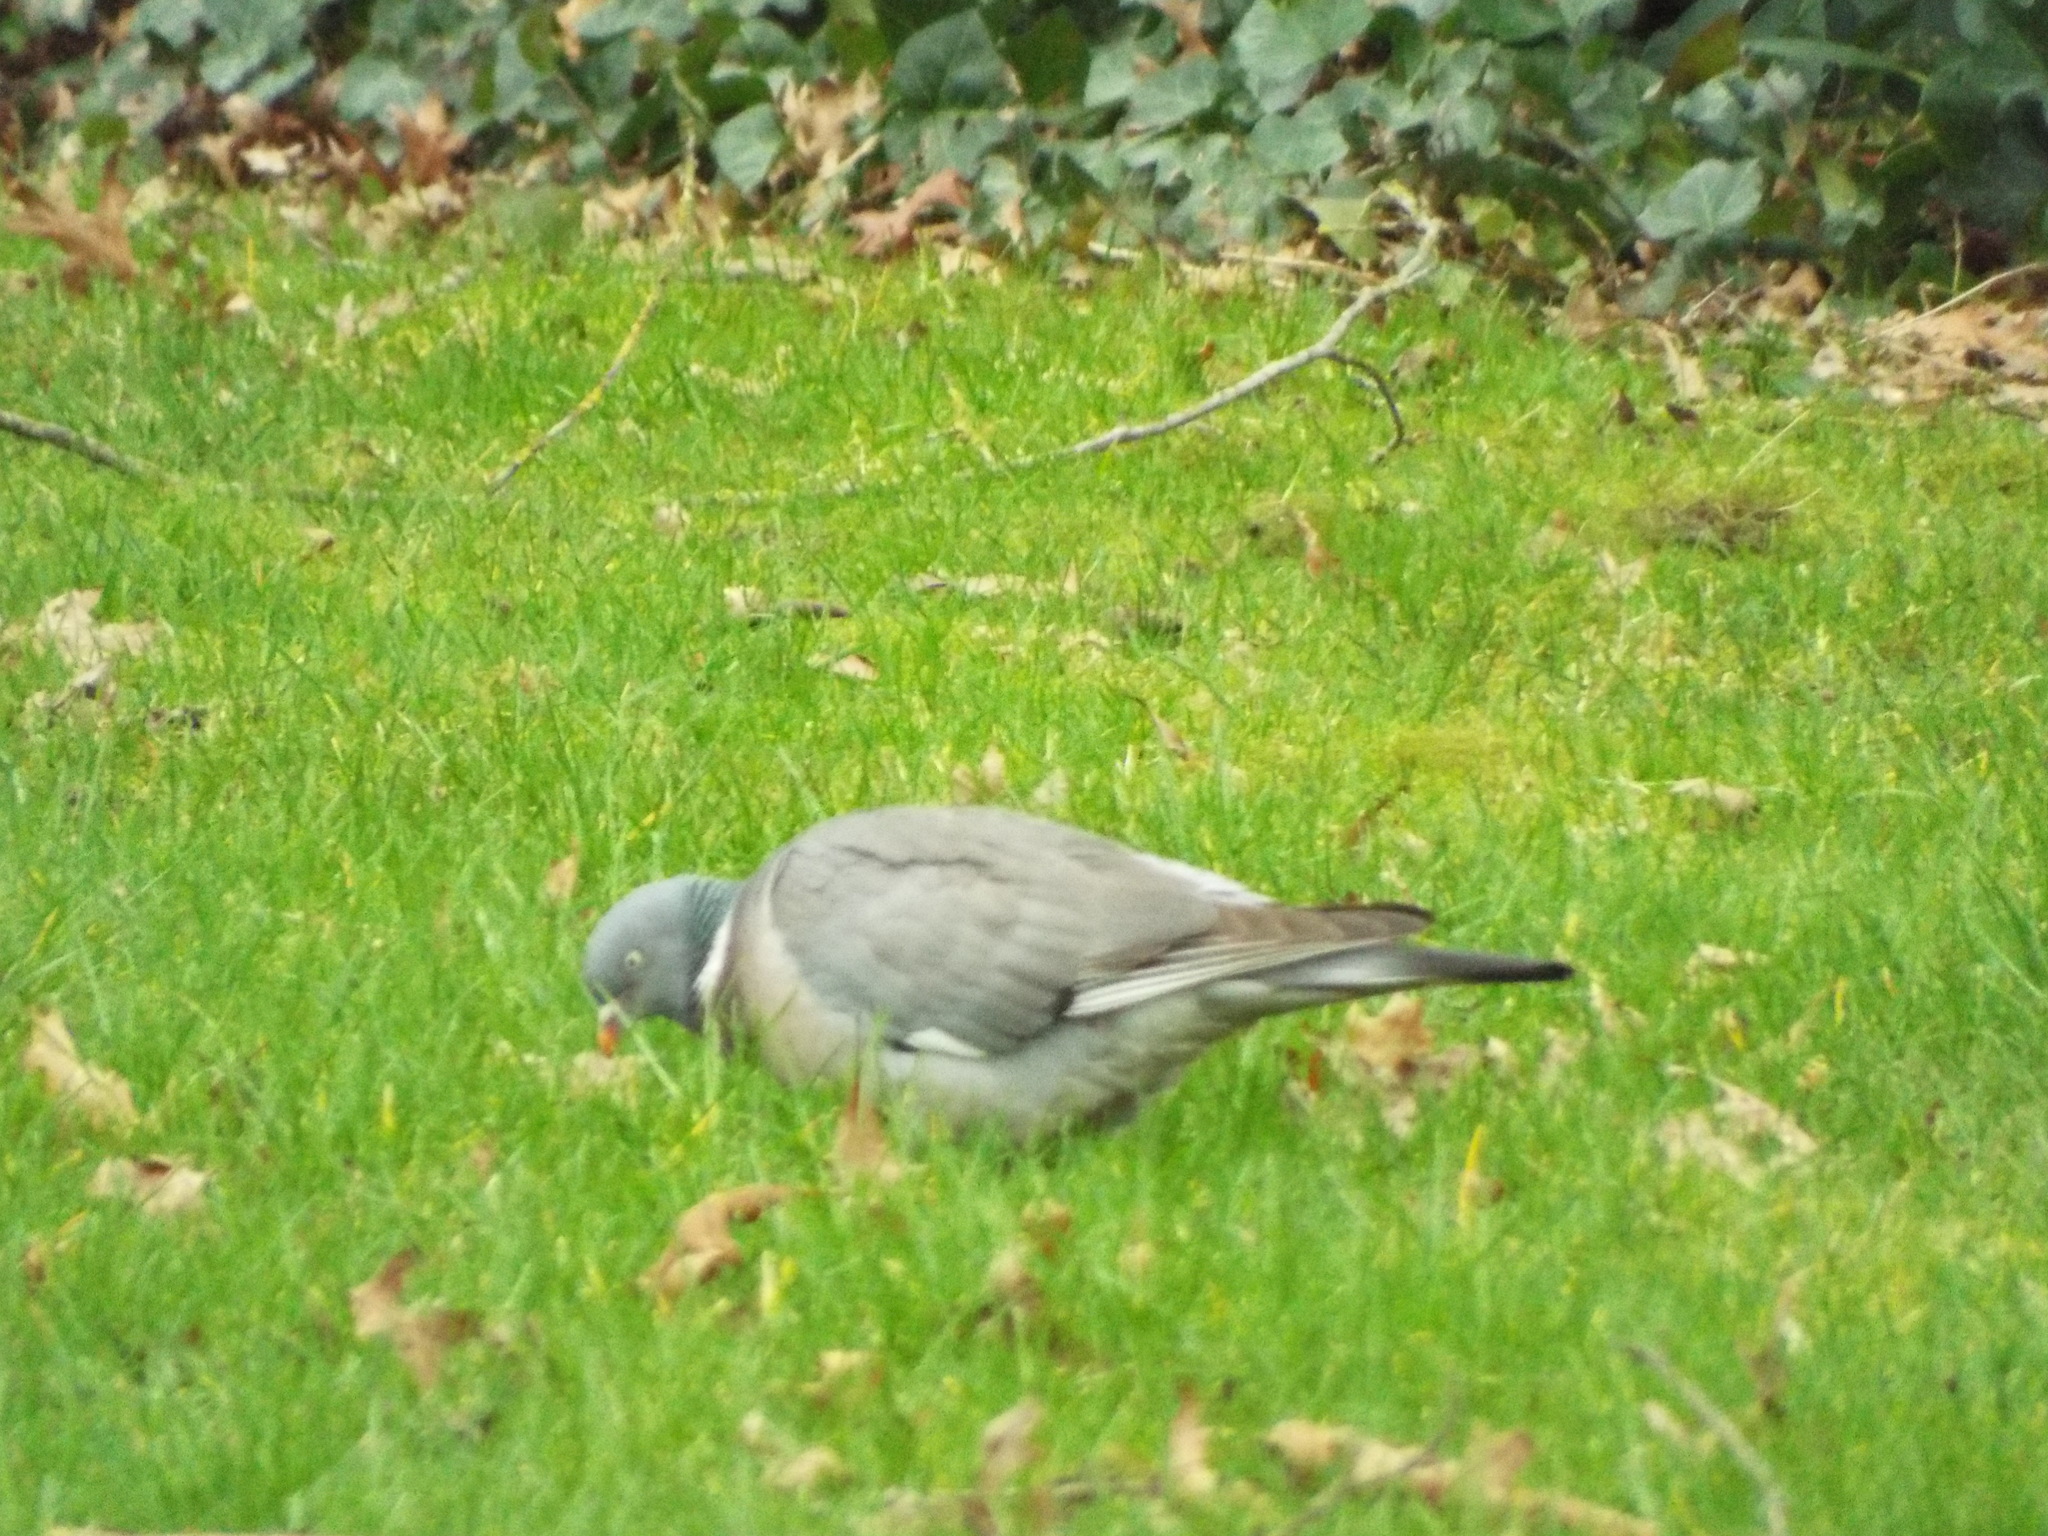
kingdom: Animalia
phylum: Chordata
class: Aves
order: Columbiformes
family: Columbidae
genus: Columba
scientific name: Columba palumbus
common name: Common wood pigeon
